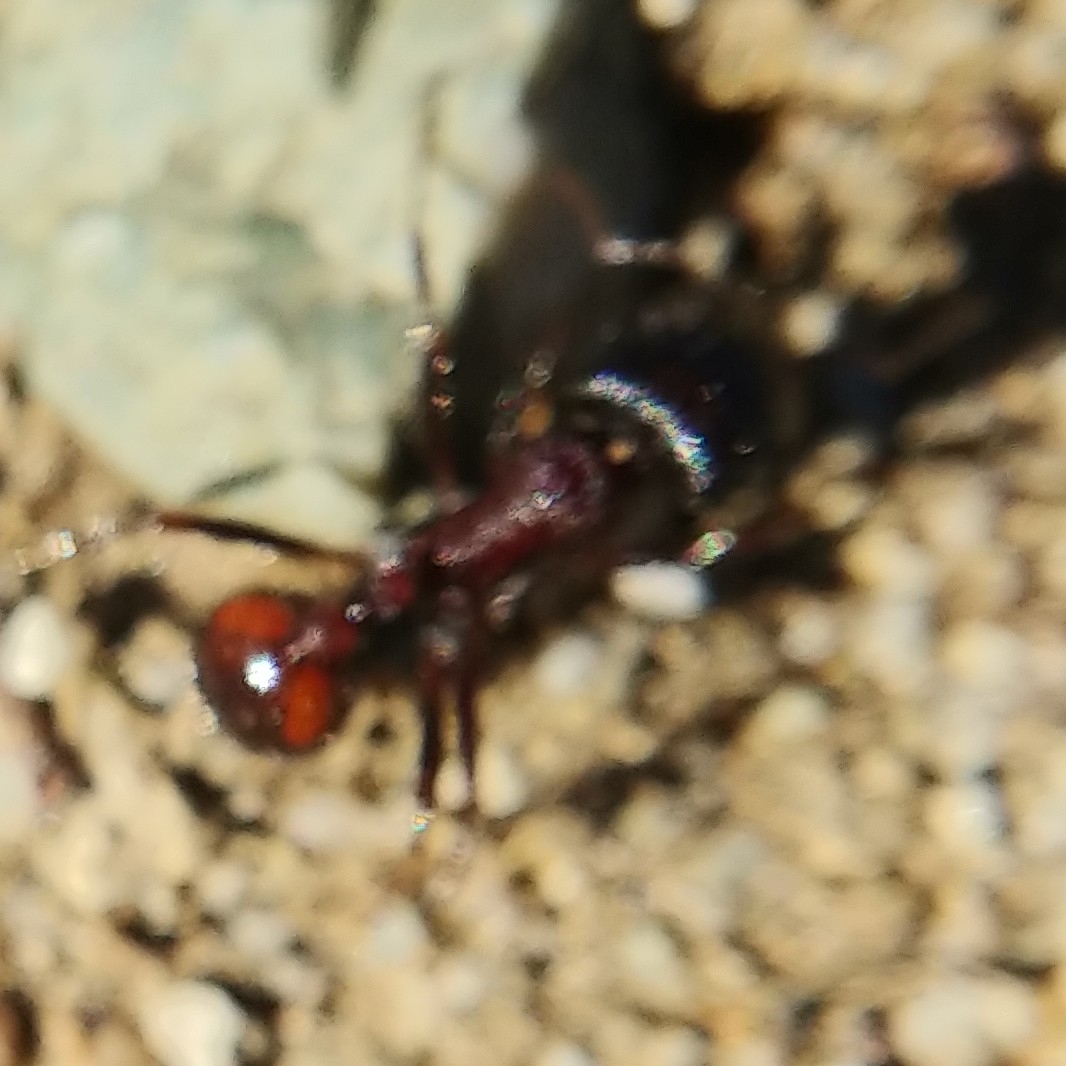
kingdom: Animalia
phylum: Arthropoda
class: Insecta
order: Hymenoptera
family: Formicidae
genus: Pogonomyrmex
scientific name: Pogonomyrmex rugosus
